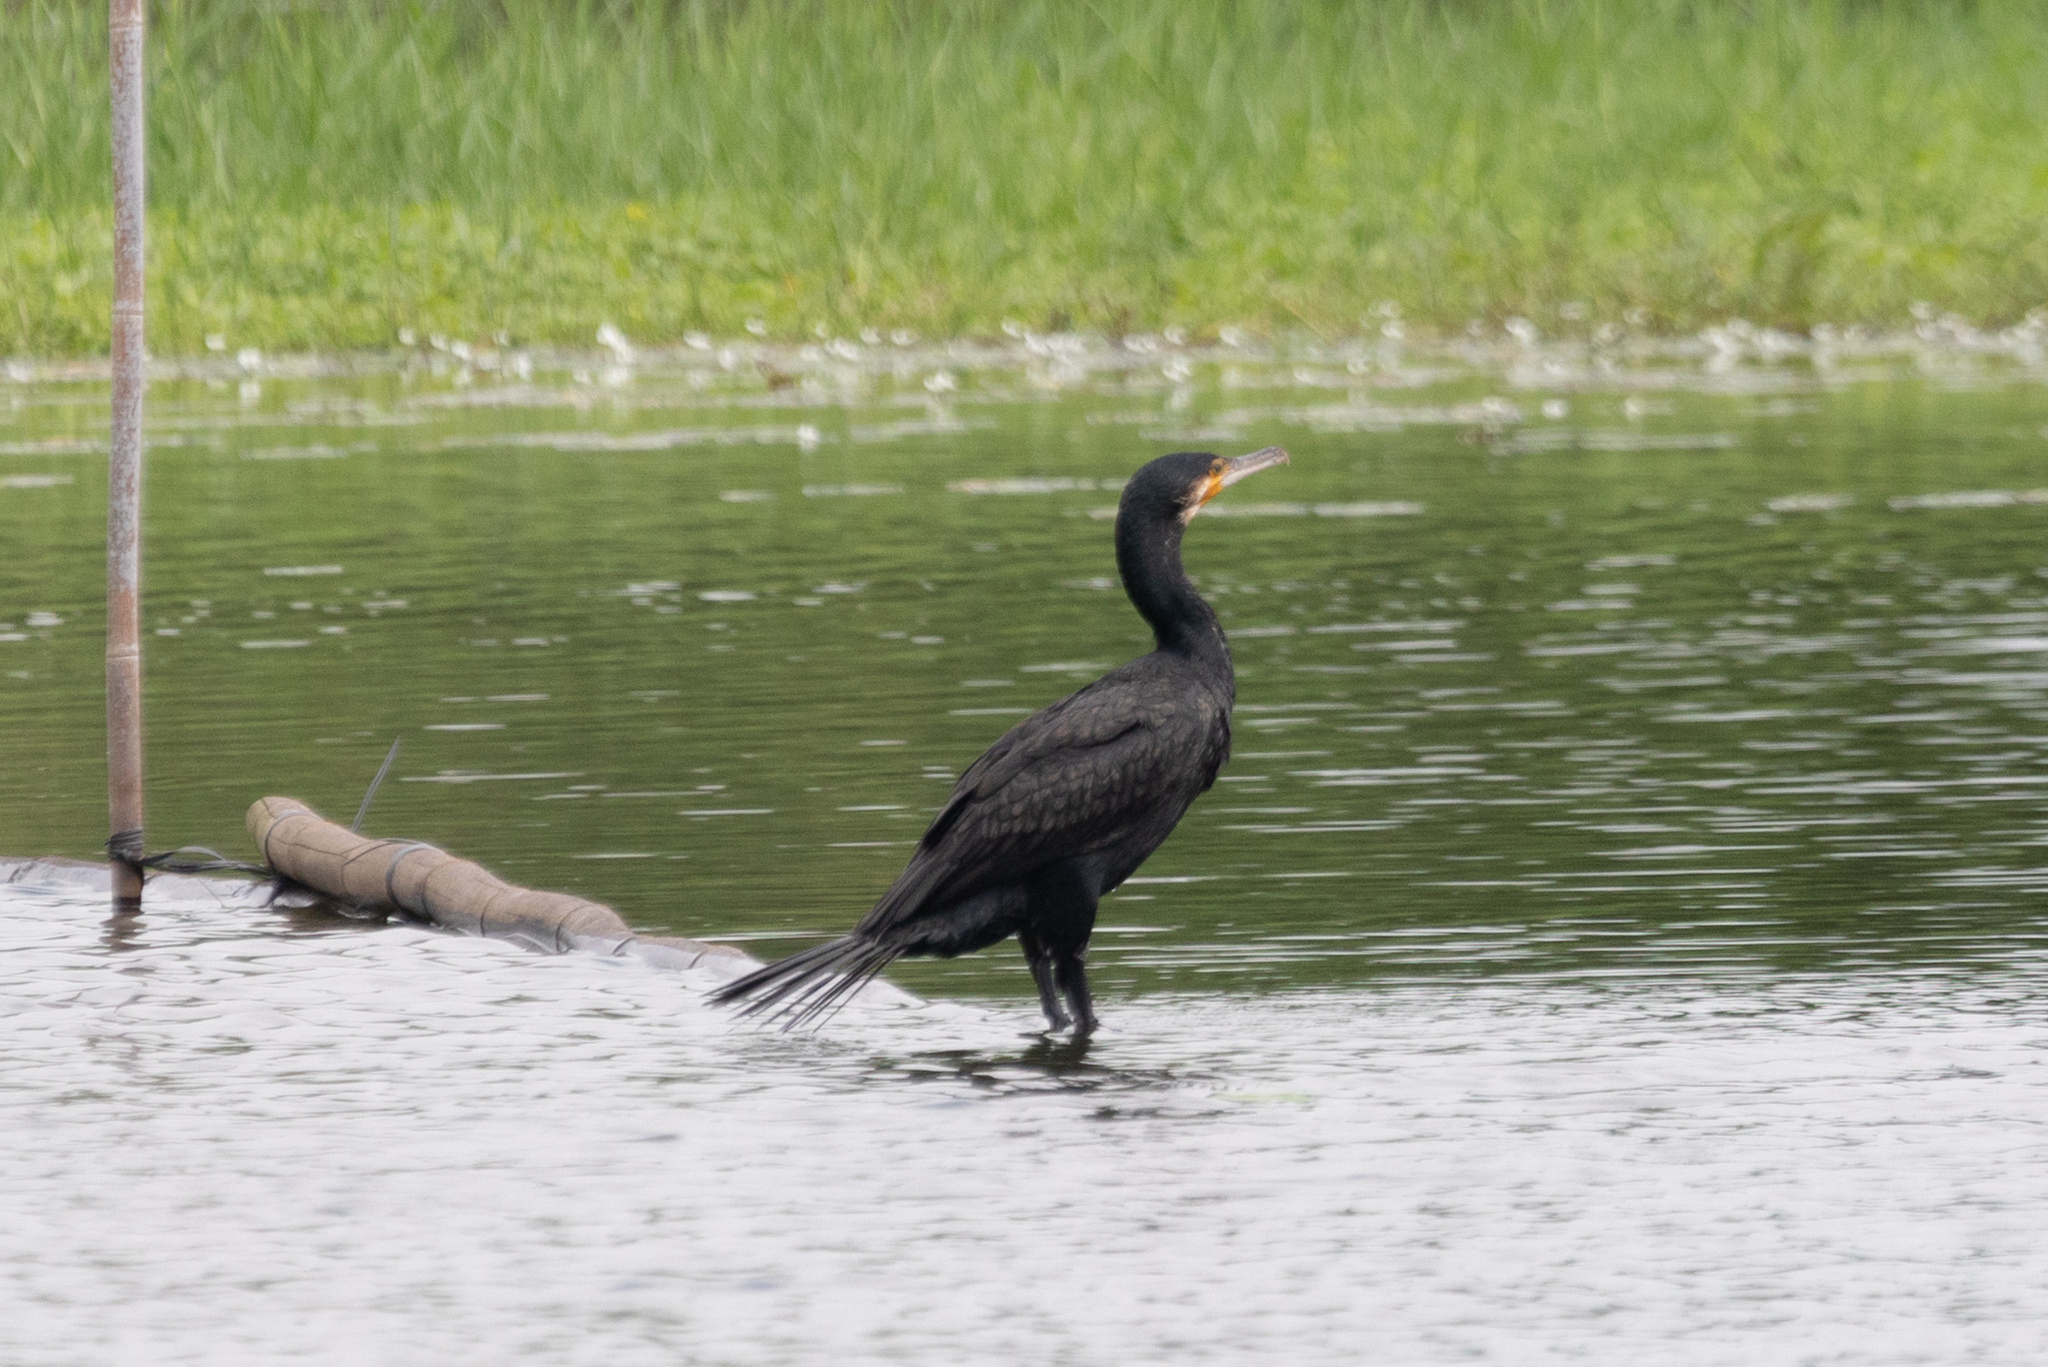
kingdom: Animalia
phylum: Chordata
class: Aves
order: Suliformes
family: Phalacrocoracidae
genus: Phalacrocorax
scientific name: Phalacrocorax carbo
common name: Great cormorant
